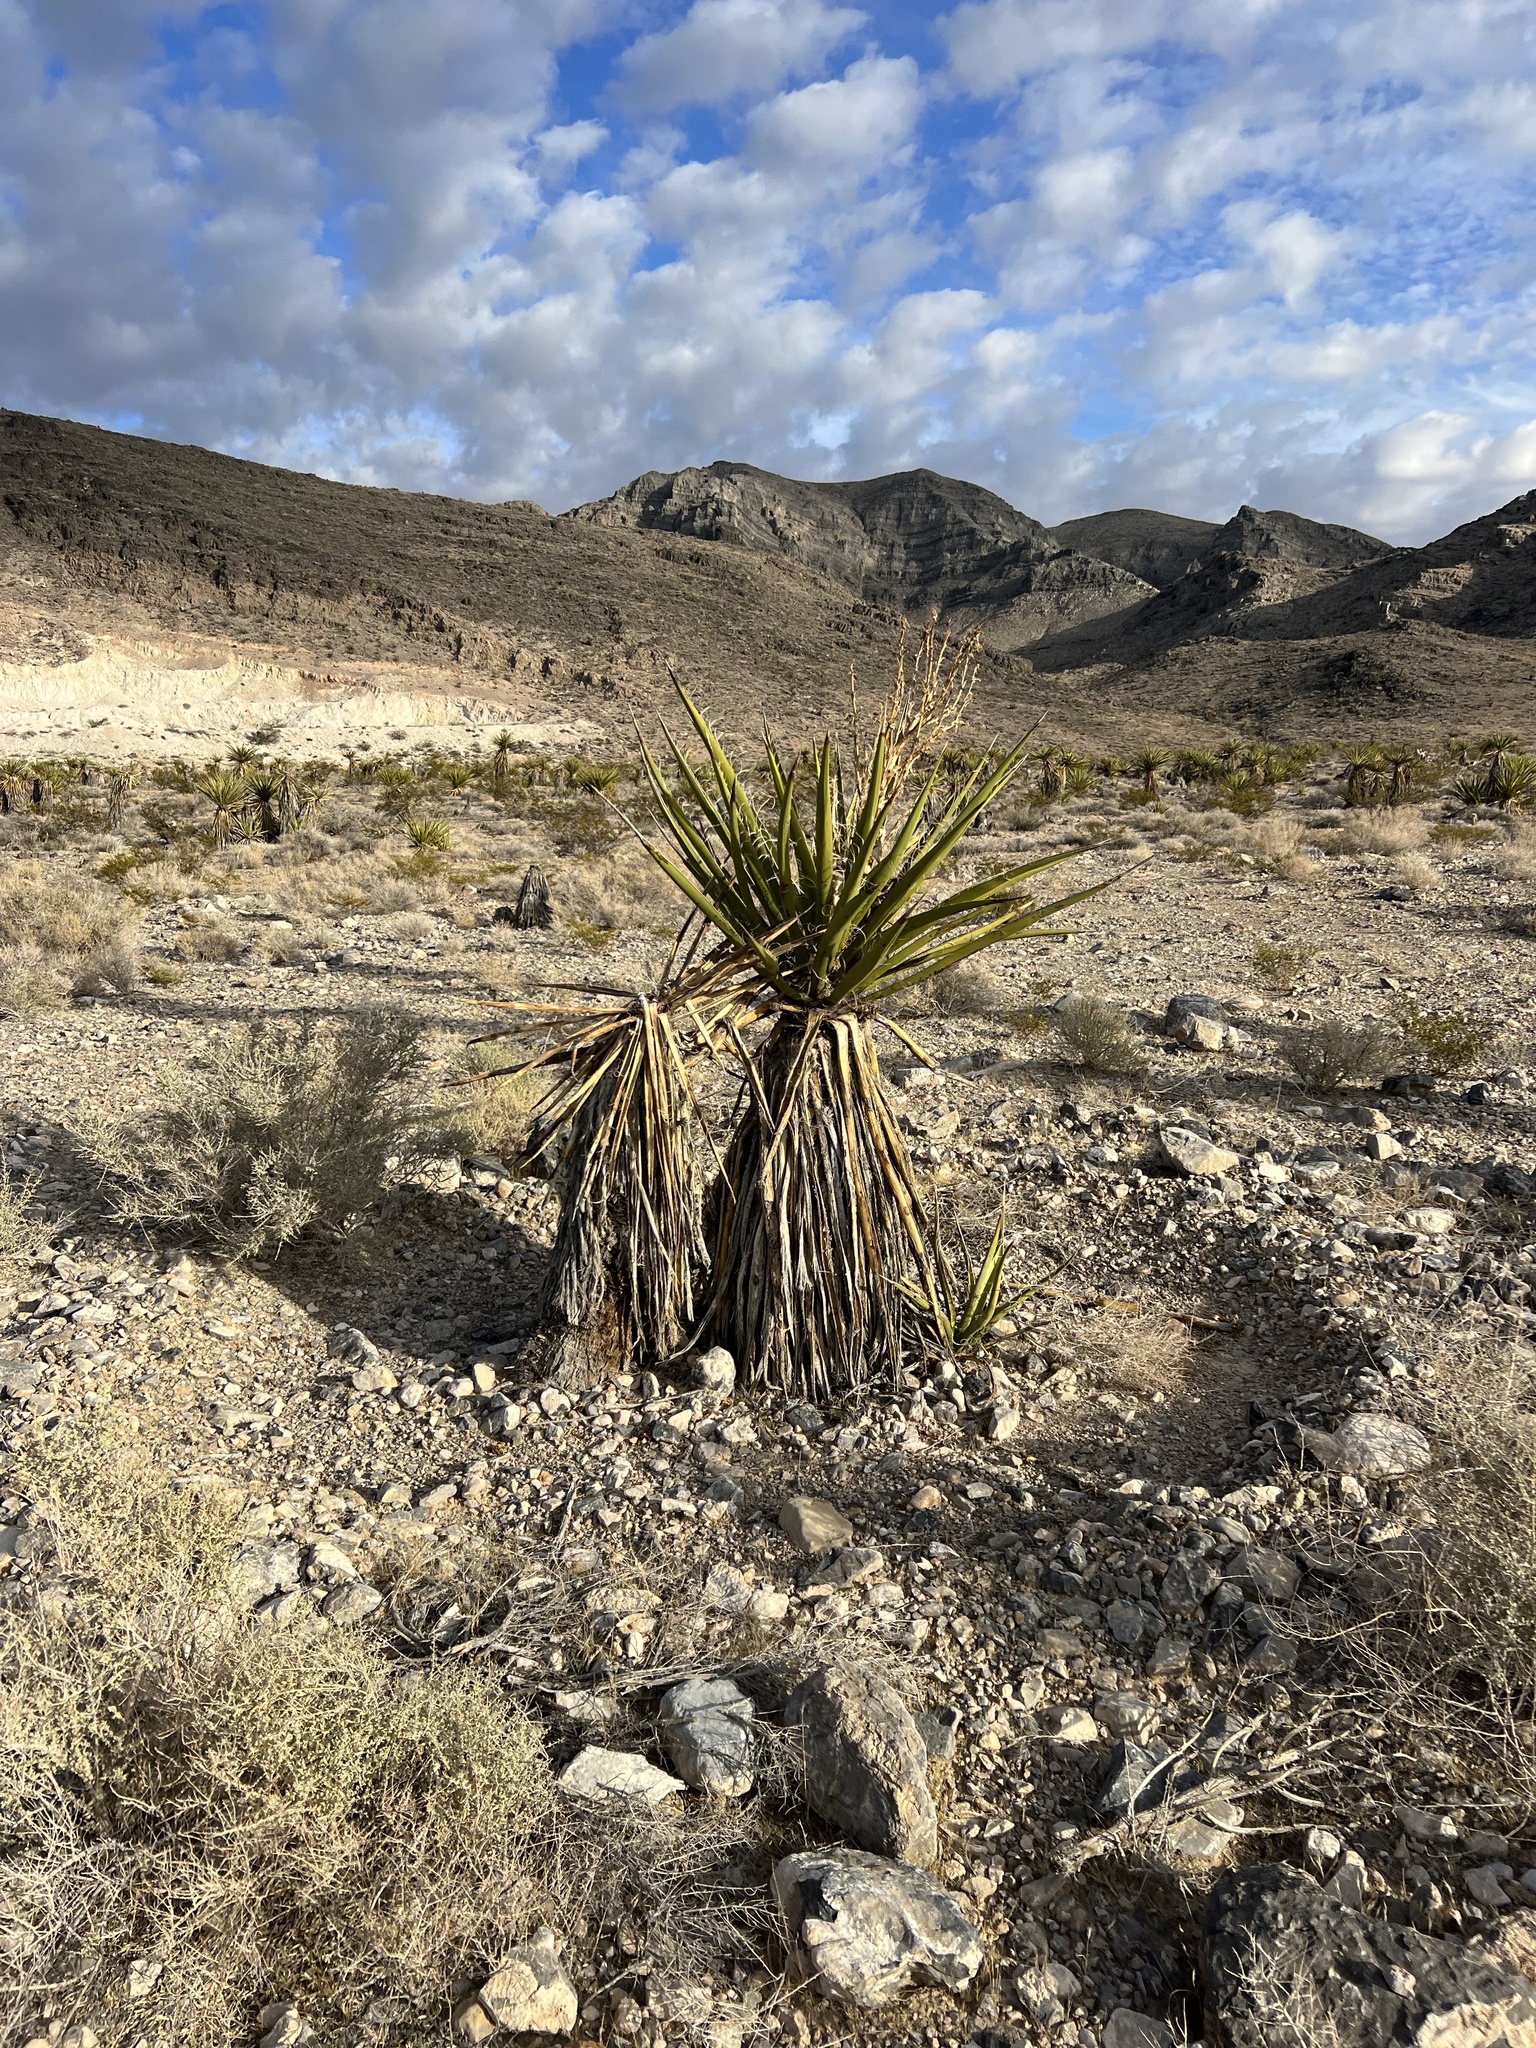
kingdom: Plantae
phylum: Tracheophyta
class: Liliopsida
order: Asparagales
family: Asparagaceae
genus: Yucca
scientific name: Yucca schidigera
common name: Mojave yucca
